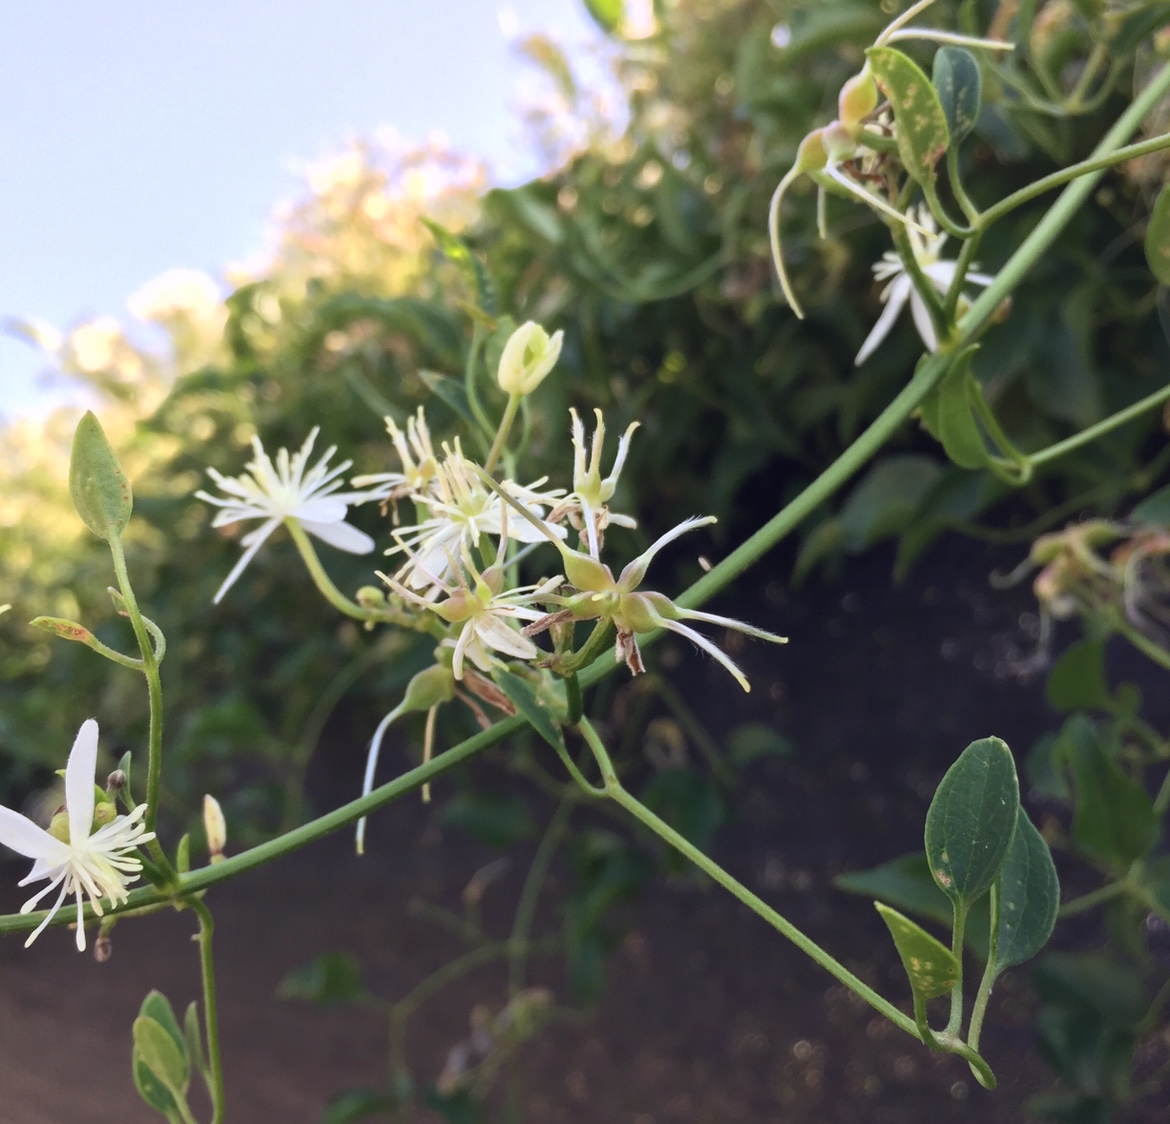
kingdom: Plantae
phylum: Tracheophyta
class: Magnoliopsida
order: Ranunculales
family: Ranunculaceae
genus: Clematis
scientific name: Clematis terniflora
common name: Sweet autumn clematis
